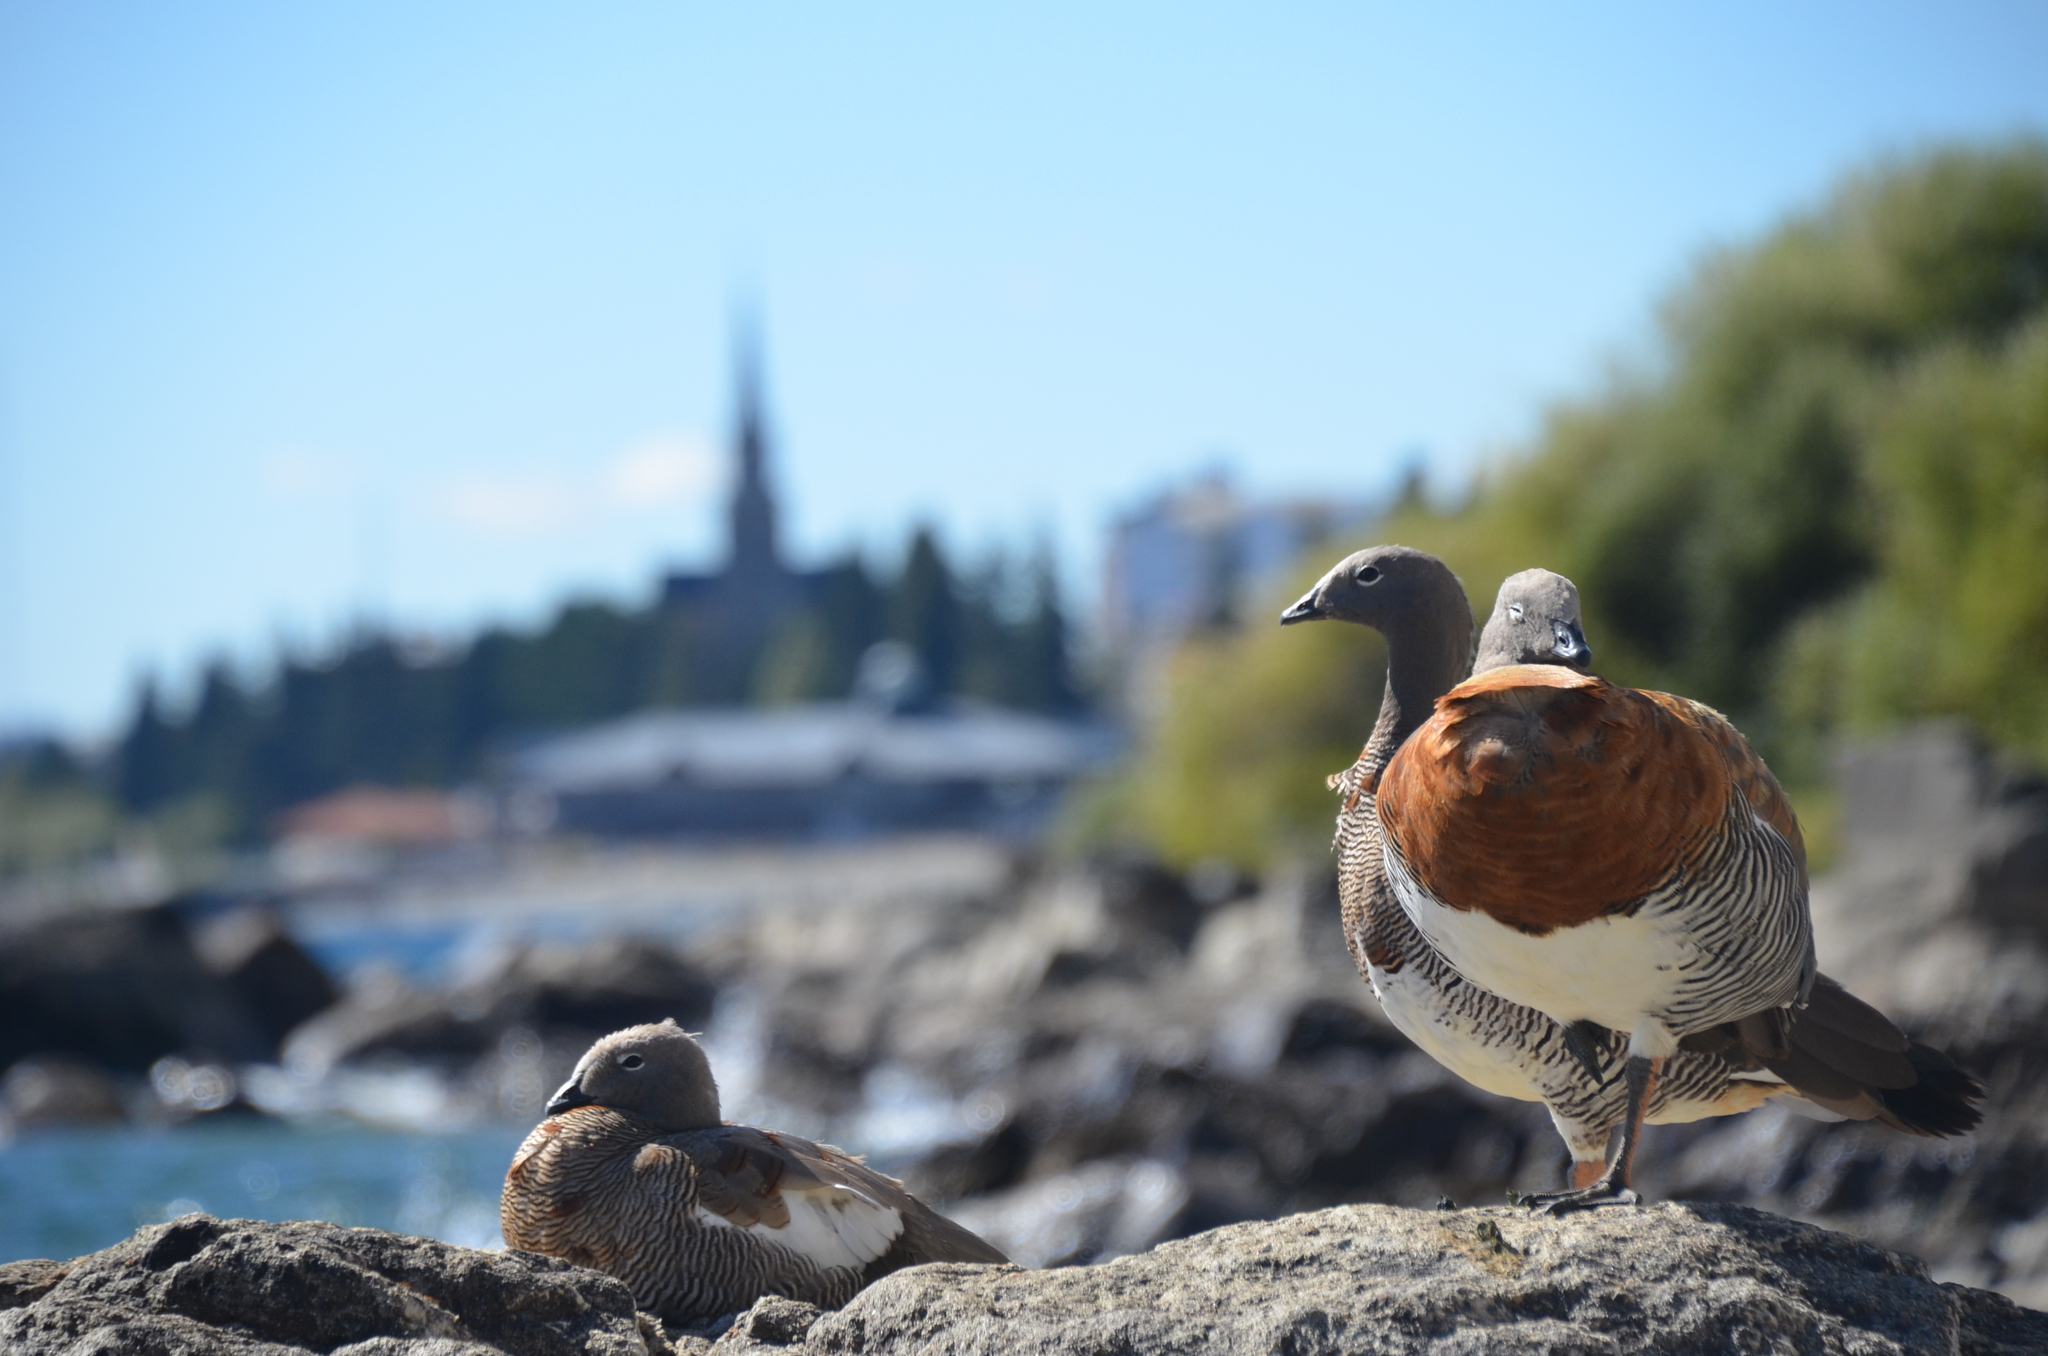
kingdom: Animalia
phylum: Chordata
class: Aves
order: Anseriformes
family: Anatidae
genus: Chloephaga
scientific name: Chloephaga poliocephala
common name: Ashy-headed goose
